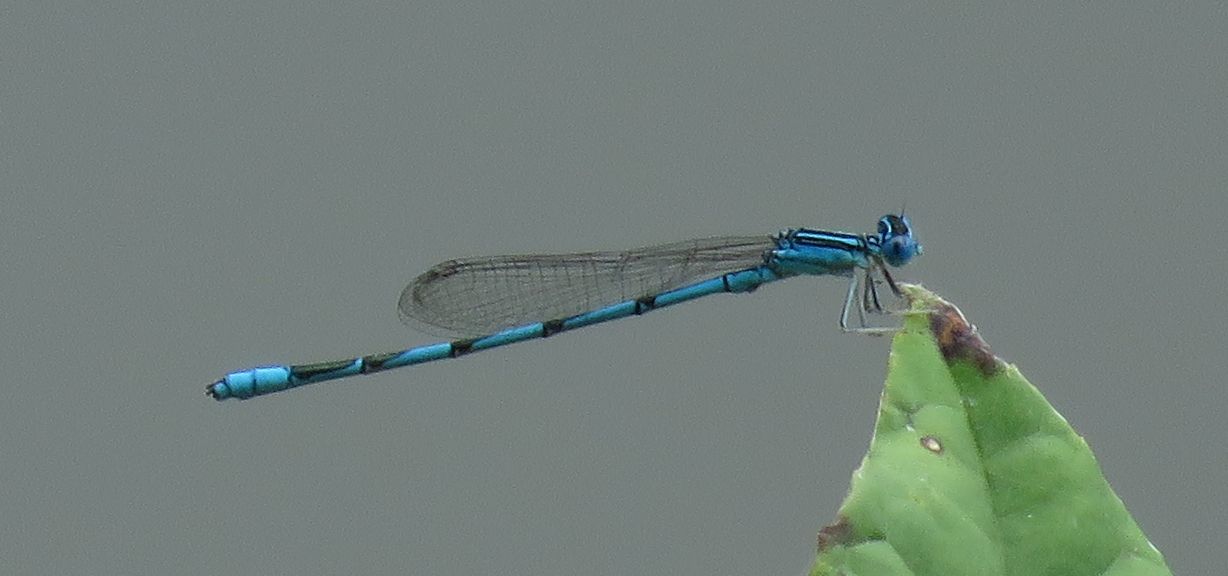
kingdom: Animalia
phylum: Arthropoda
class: Insecta
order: Odonata
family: Coenagrionidae
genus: Enallagma
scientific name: Enallagma basidens
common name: Double-striped bluet
